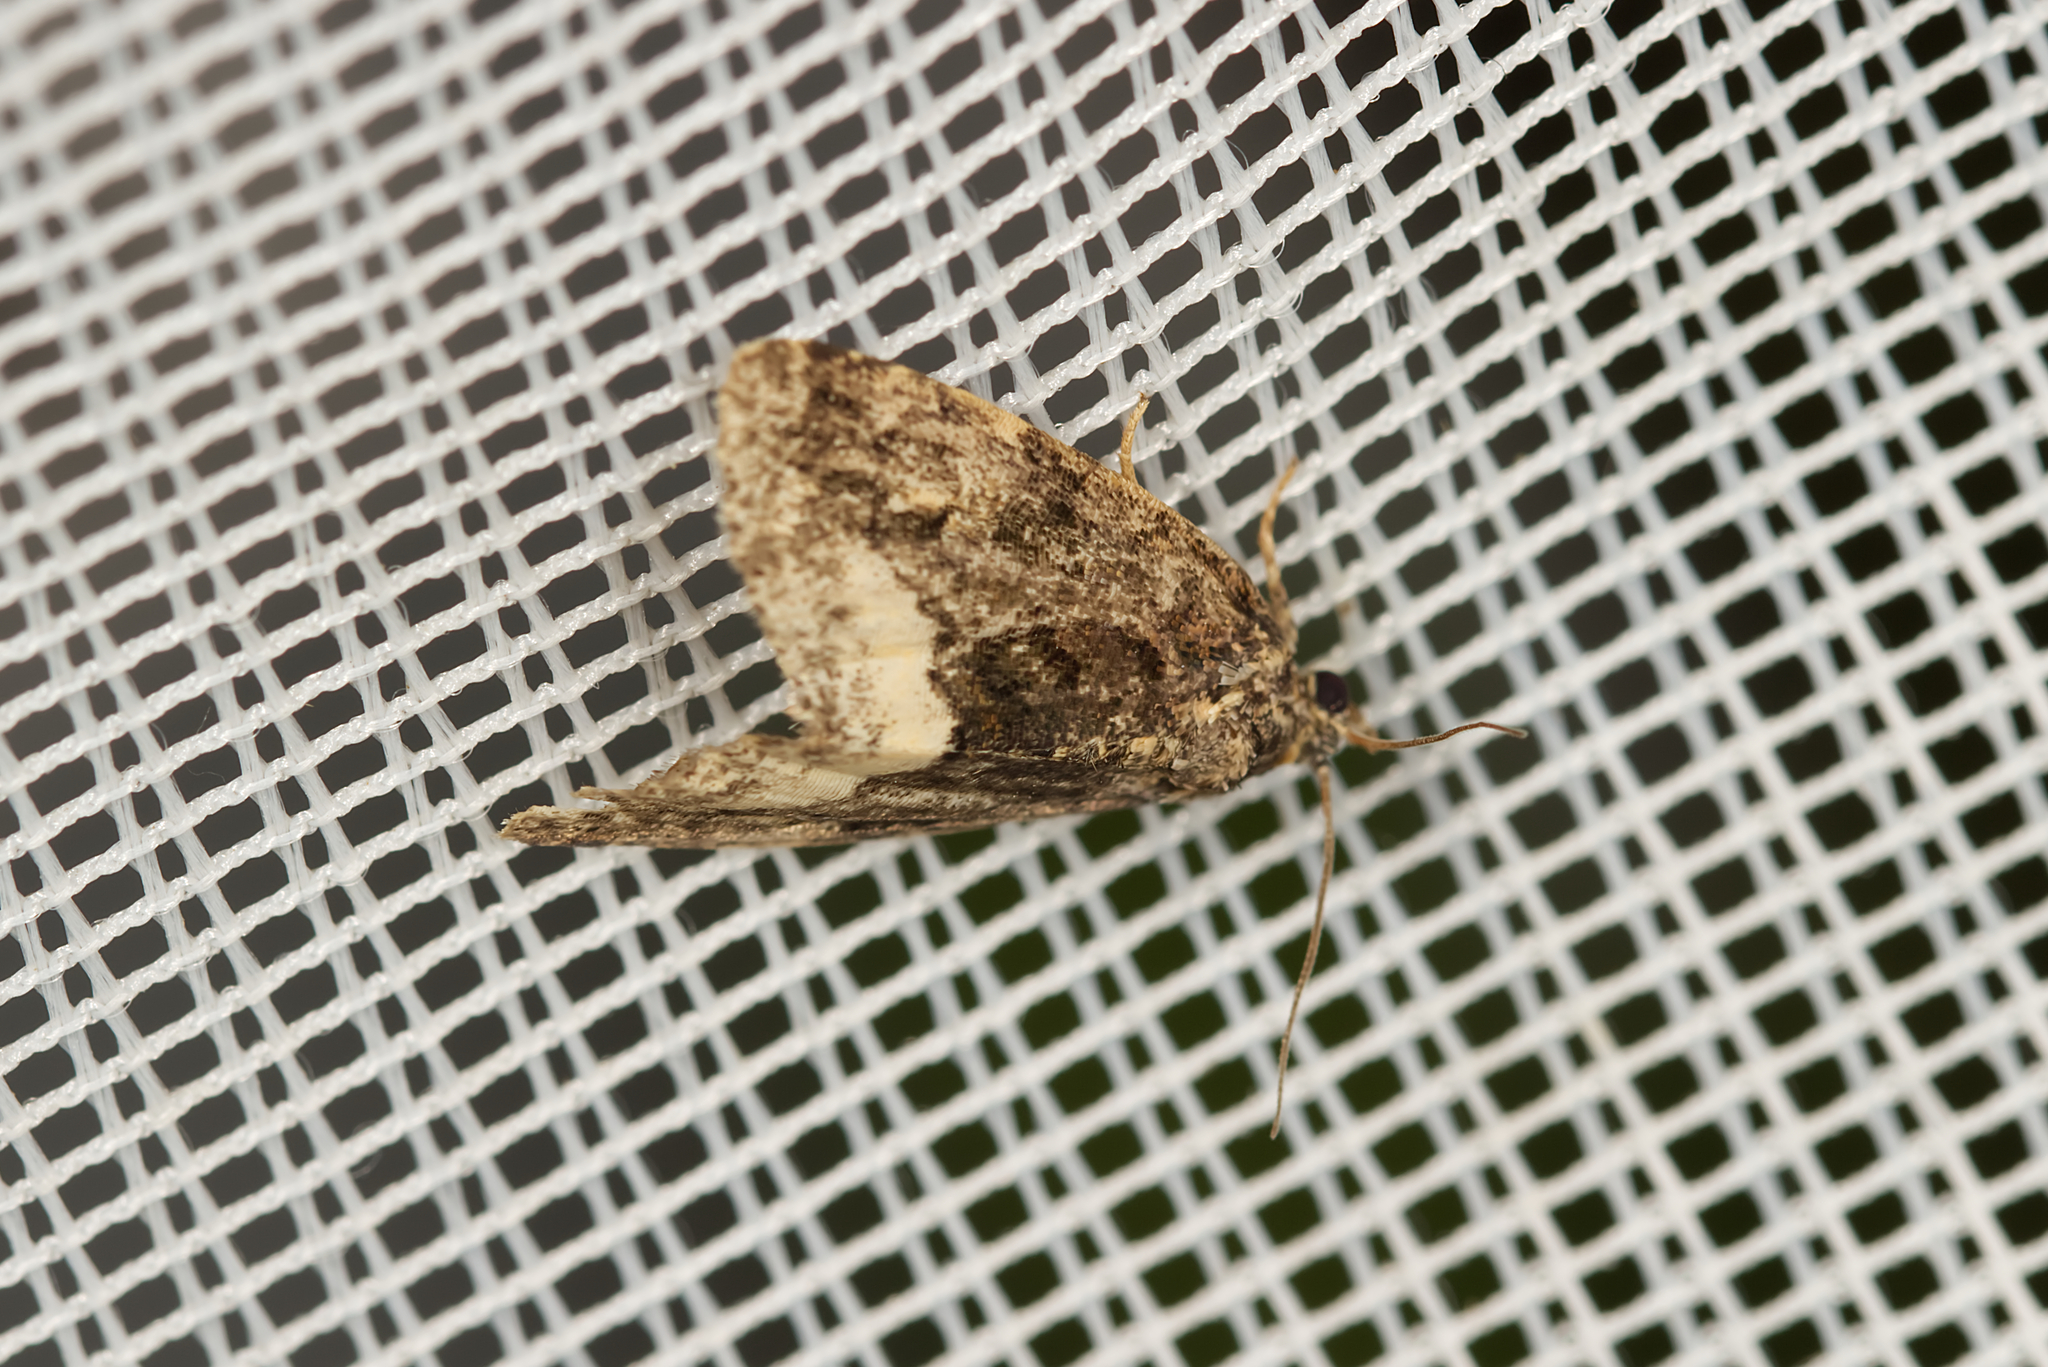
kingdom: Animalia
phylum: Arthropoda
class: Insecta
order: Lepidoptera
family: Noctuidae
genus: Deltote
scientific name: Deltote pygarga
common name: Marbled white spot
